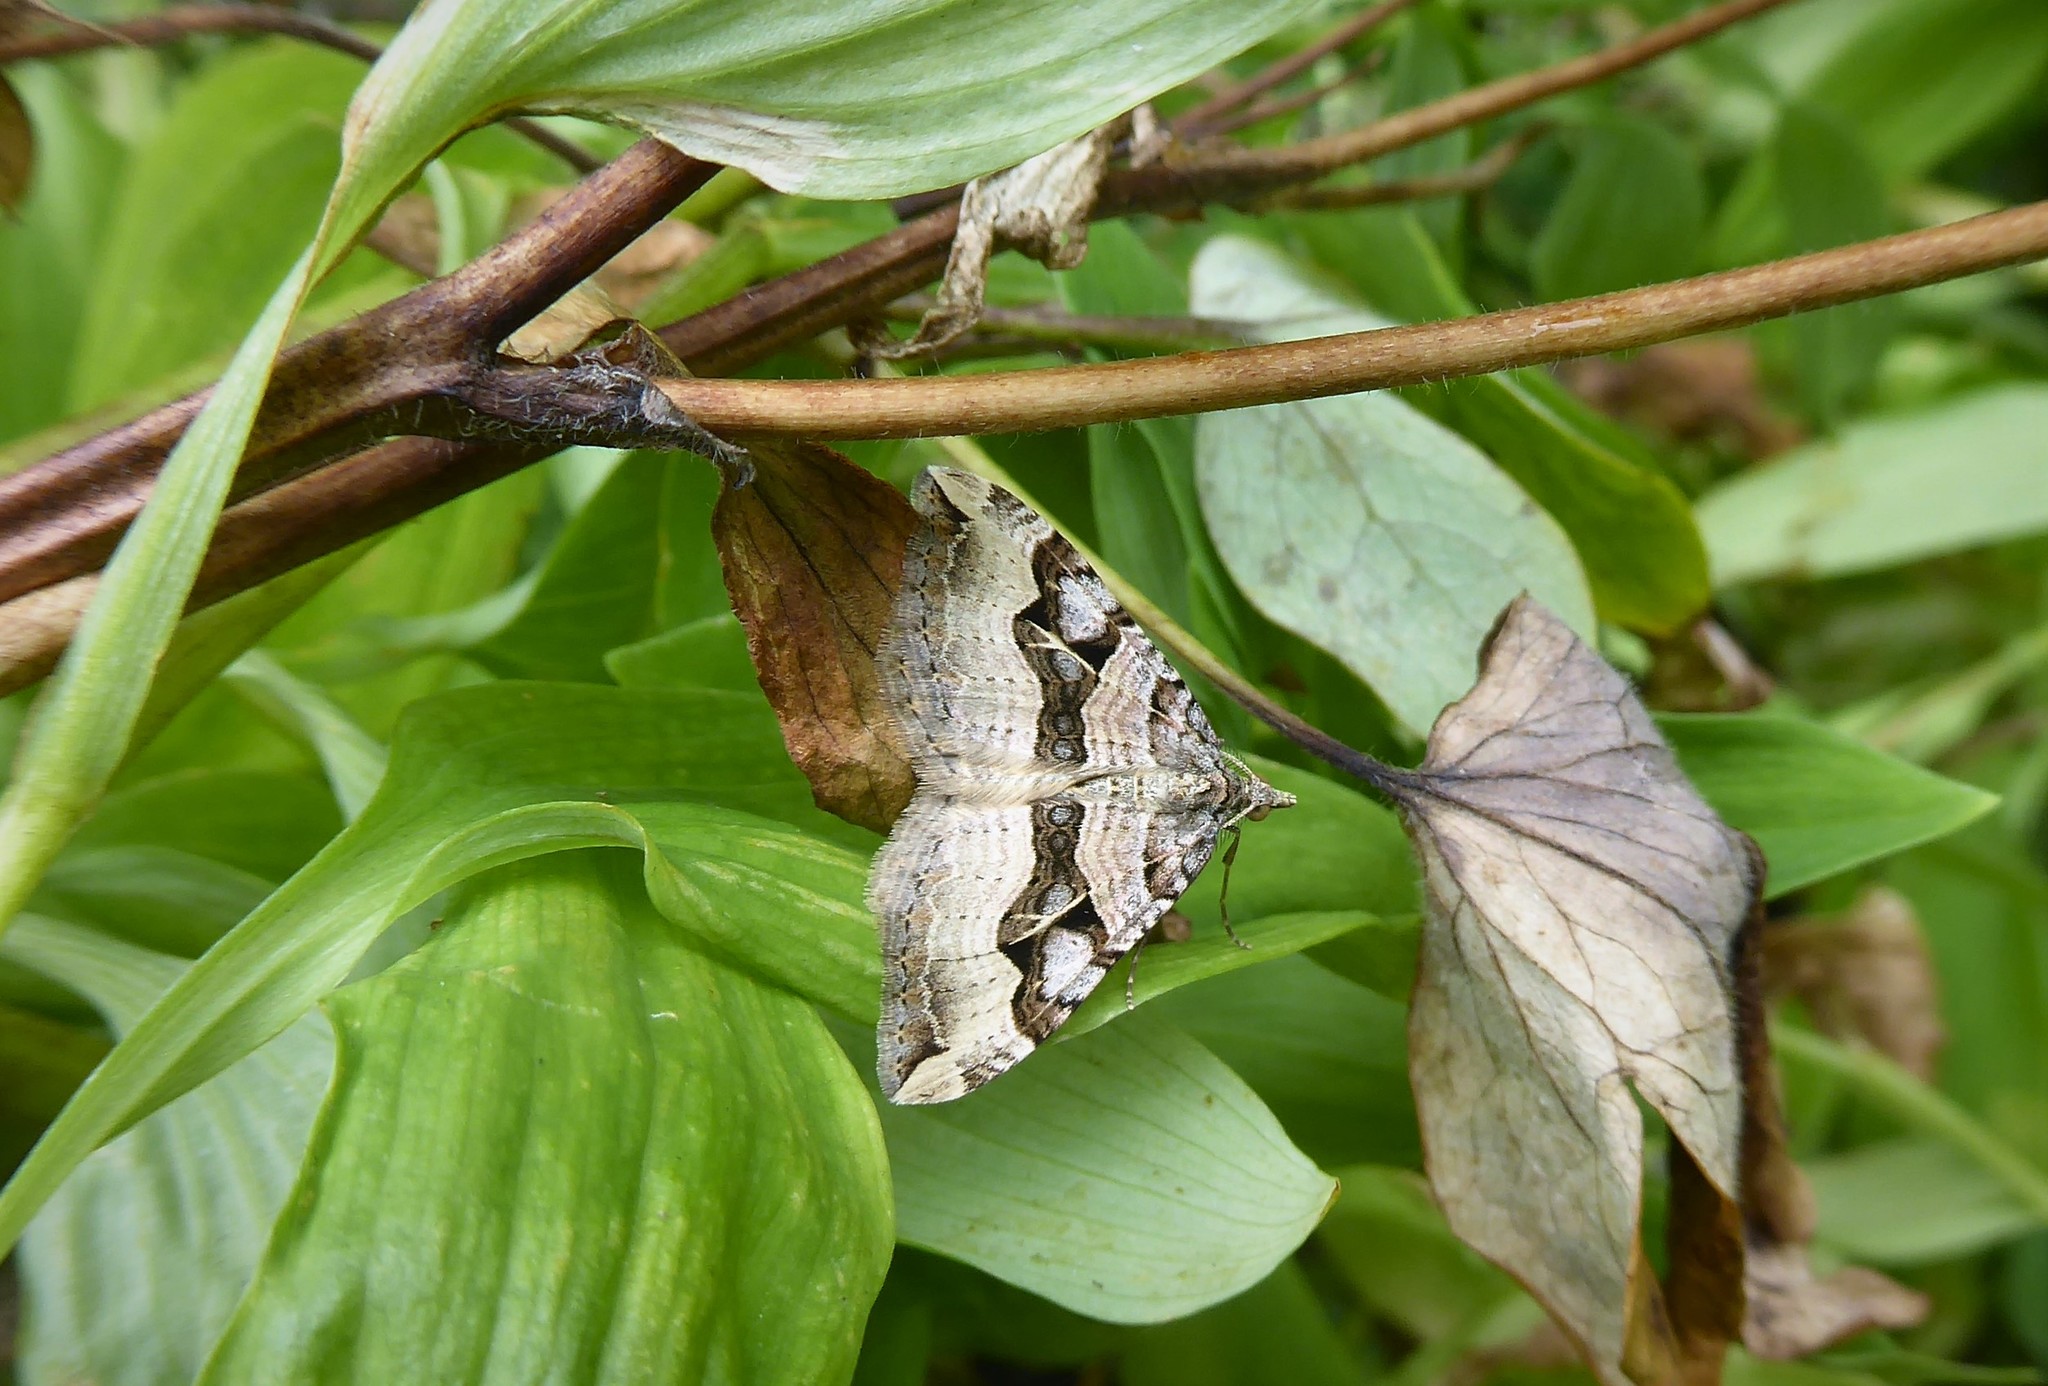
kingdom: Animalia
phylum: Arthropoda
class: Insecta
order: Lepidoptera
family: Geometridae
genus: Xanthorhoe
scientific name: Xanthorhoe semifissata
